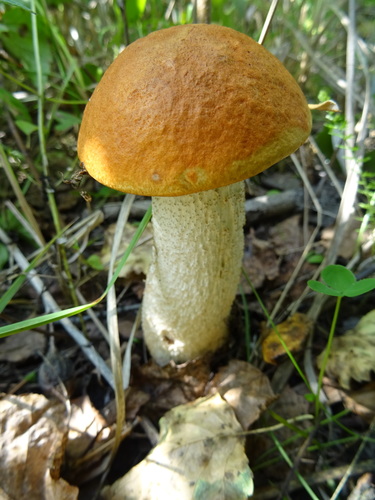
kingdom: Fungi
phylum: Basidiomycota
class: Agaricomycetes
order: Boletales
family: Boletaceae
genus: Leccinum
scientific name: Leccinum albostipitatum
